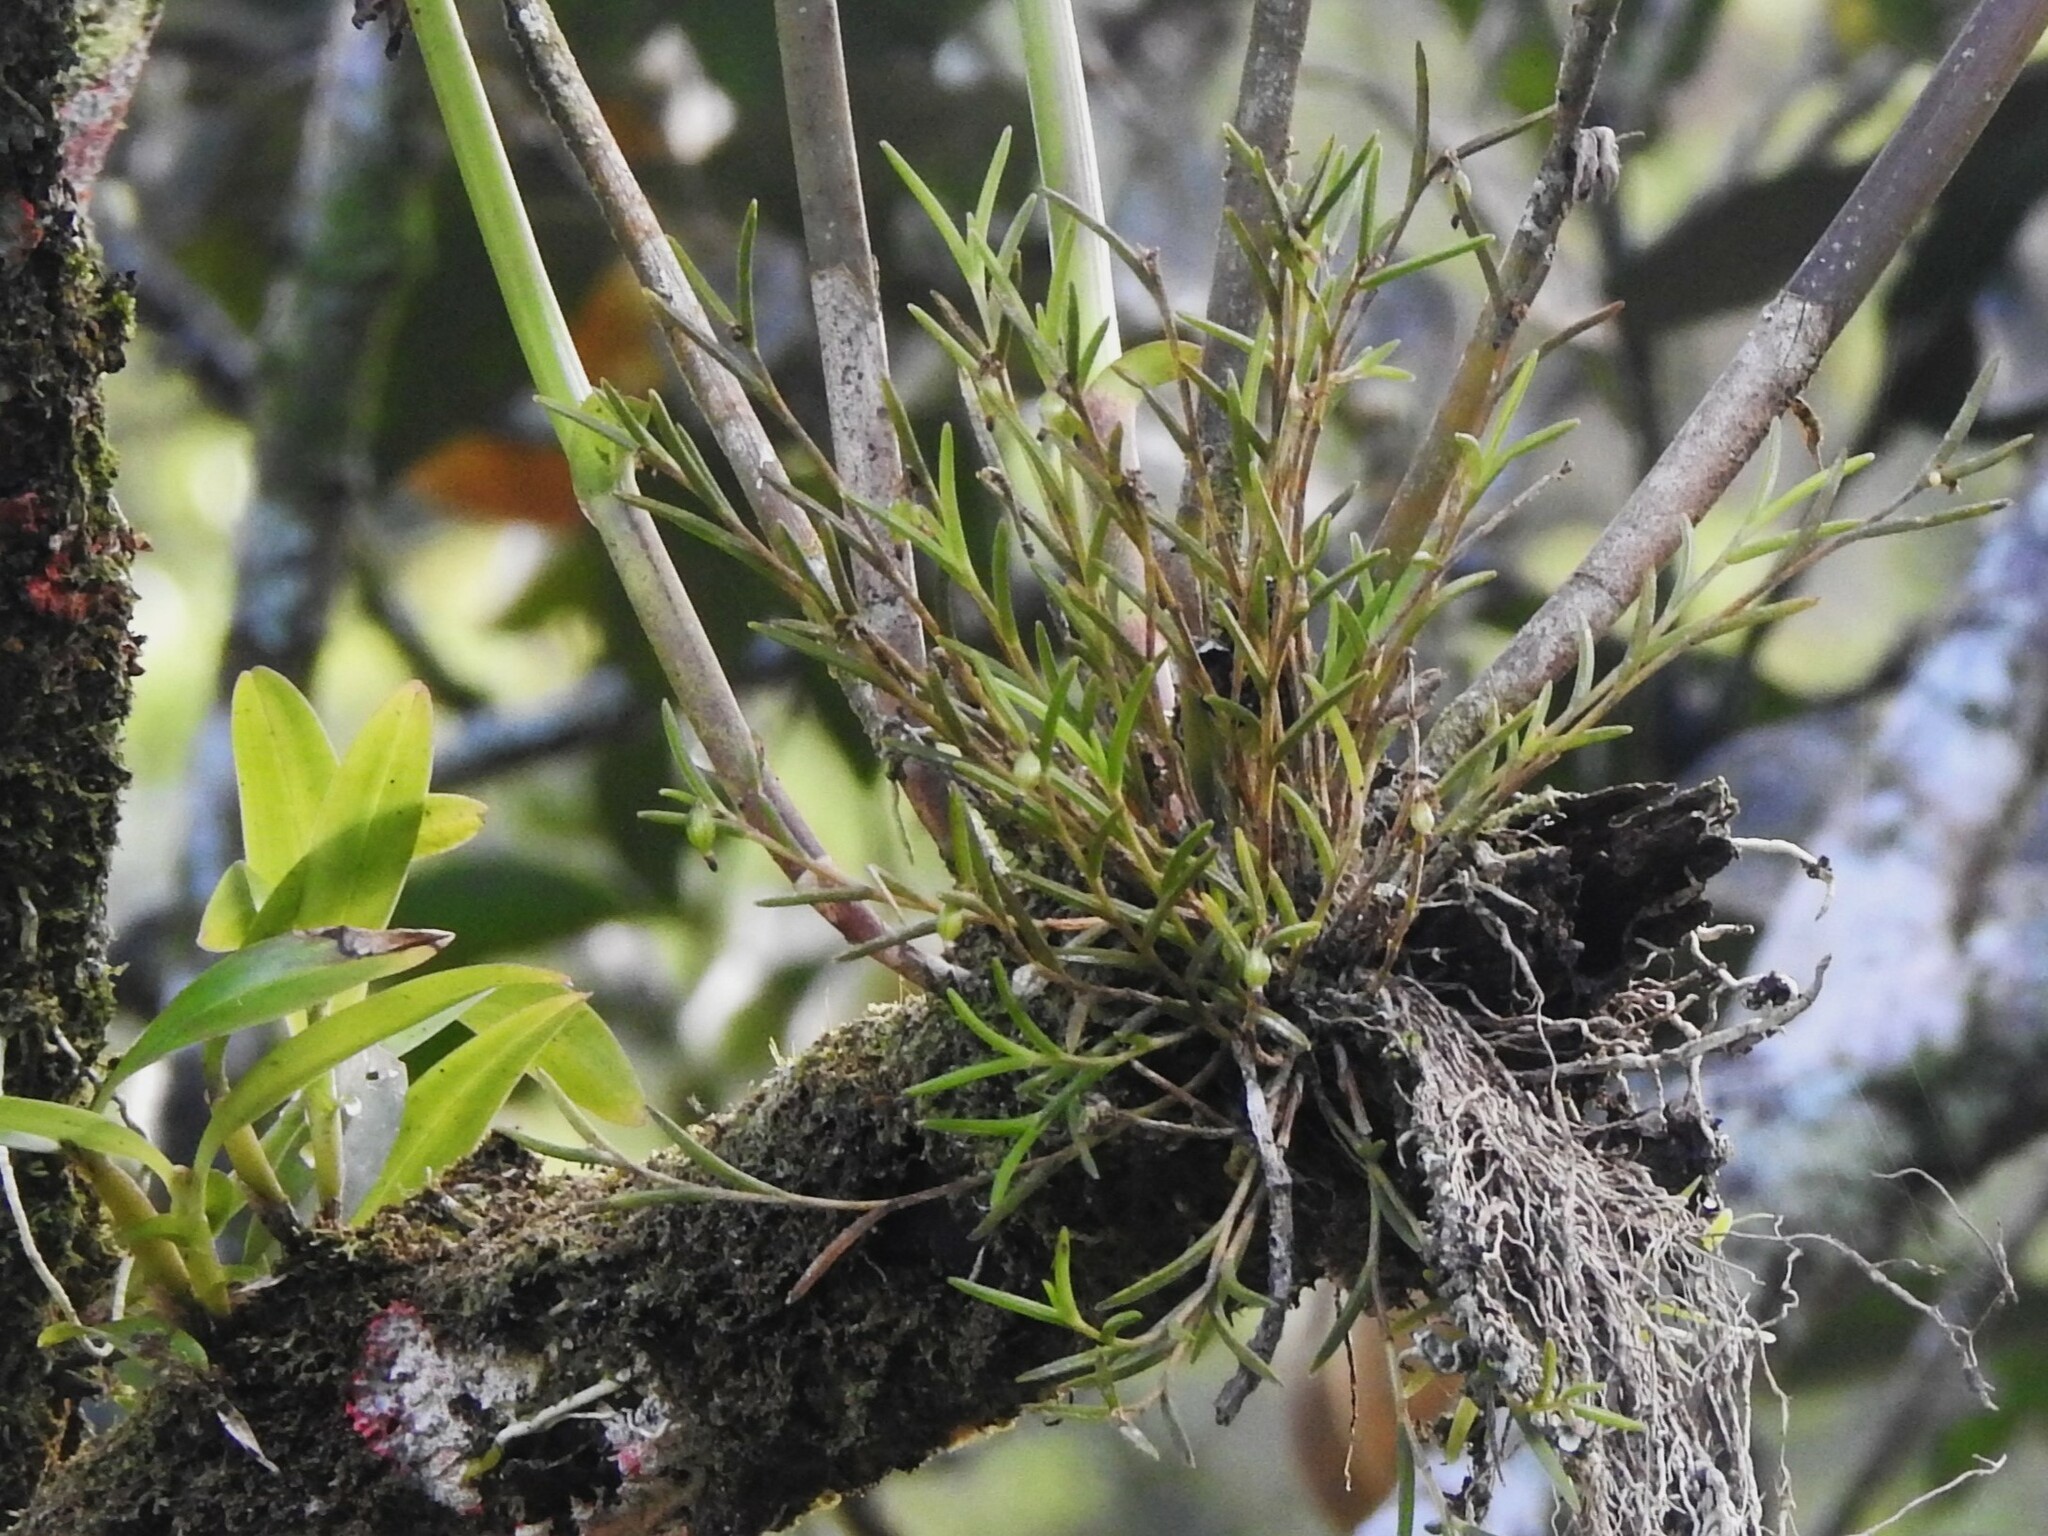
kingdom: Plantae
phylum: Tracheophyta
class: Liliopsida
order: Asparagales
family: Orchidaceae
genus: Jacquiniella
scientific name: Jacquiniella globosa
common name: Redblotch tufted orchid
